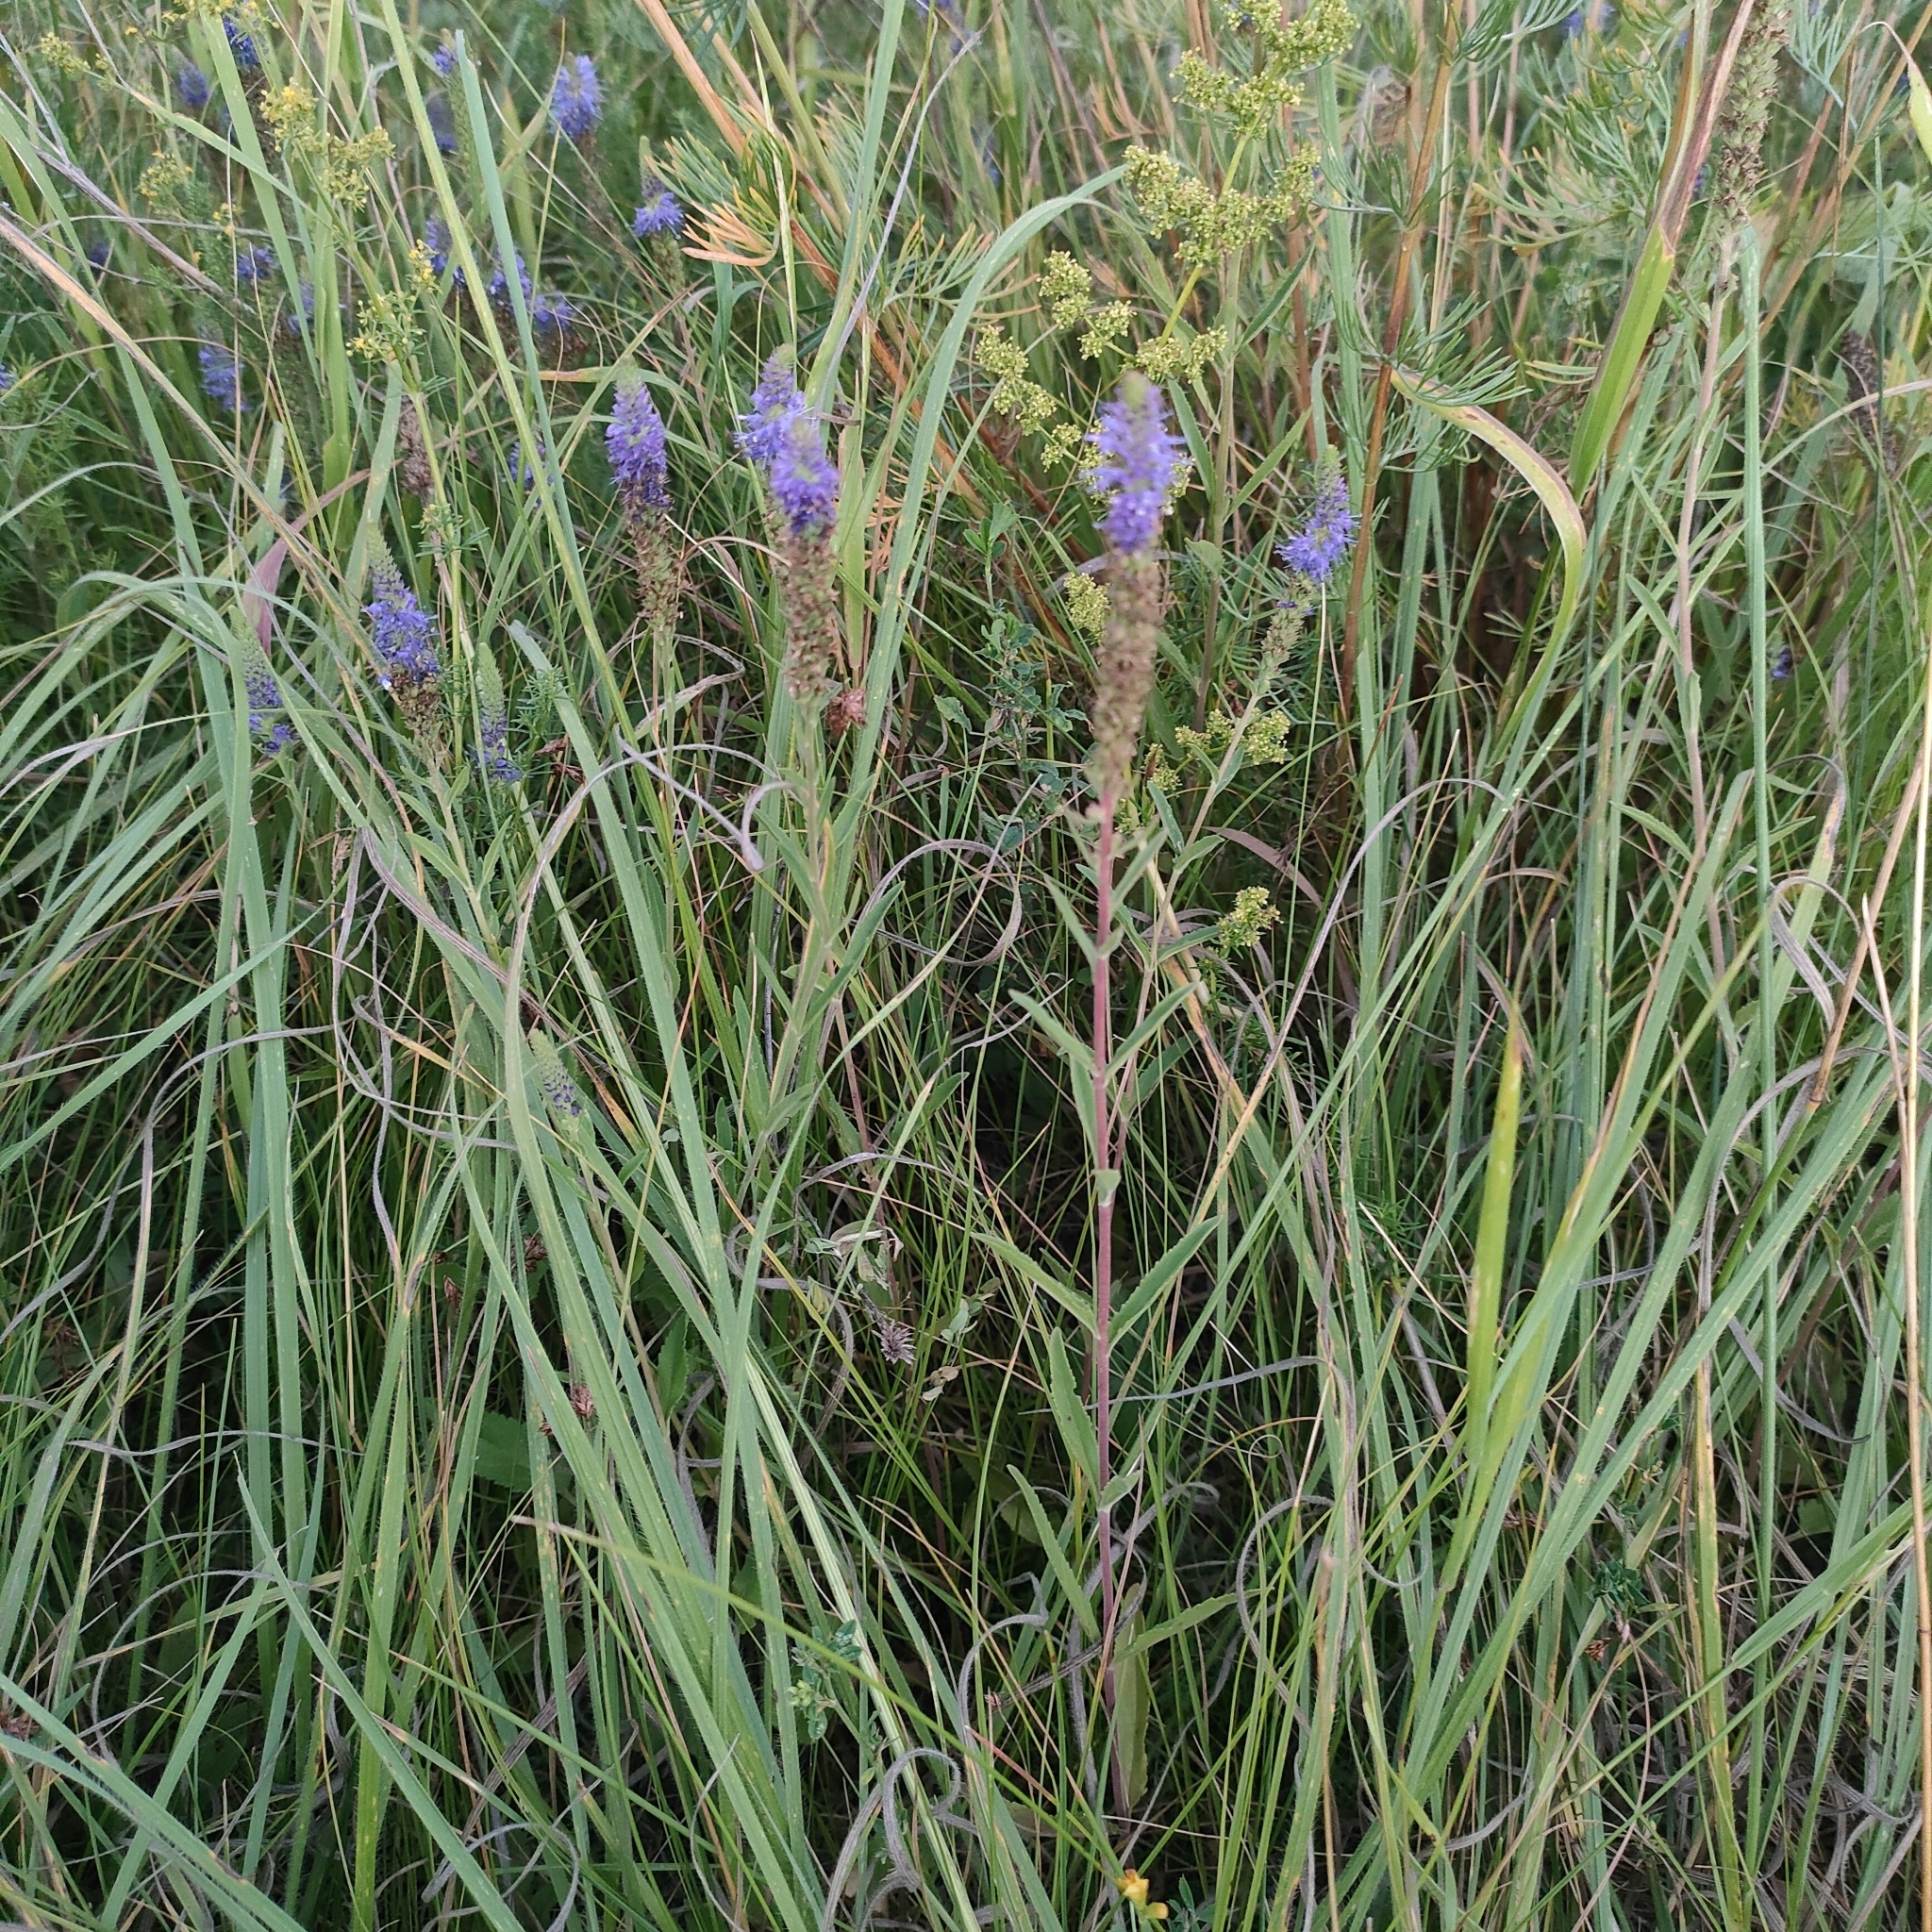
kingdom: Plantae
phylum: Tracheophyta
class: Magnoliopsida
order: Lamiales
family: Plantaginaceae
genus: Veronica
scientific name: Veronica spicata
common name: Spiked speedwell
